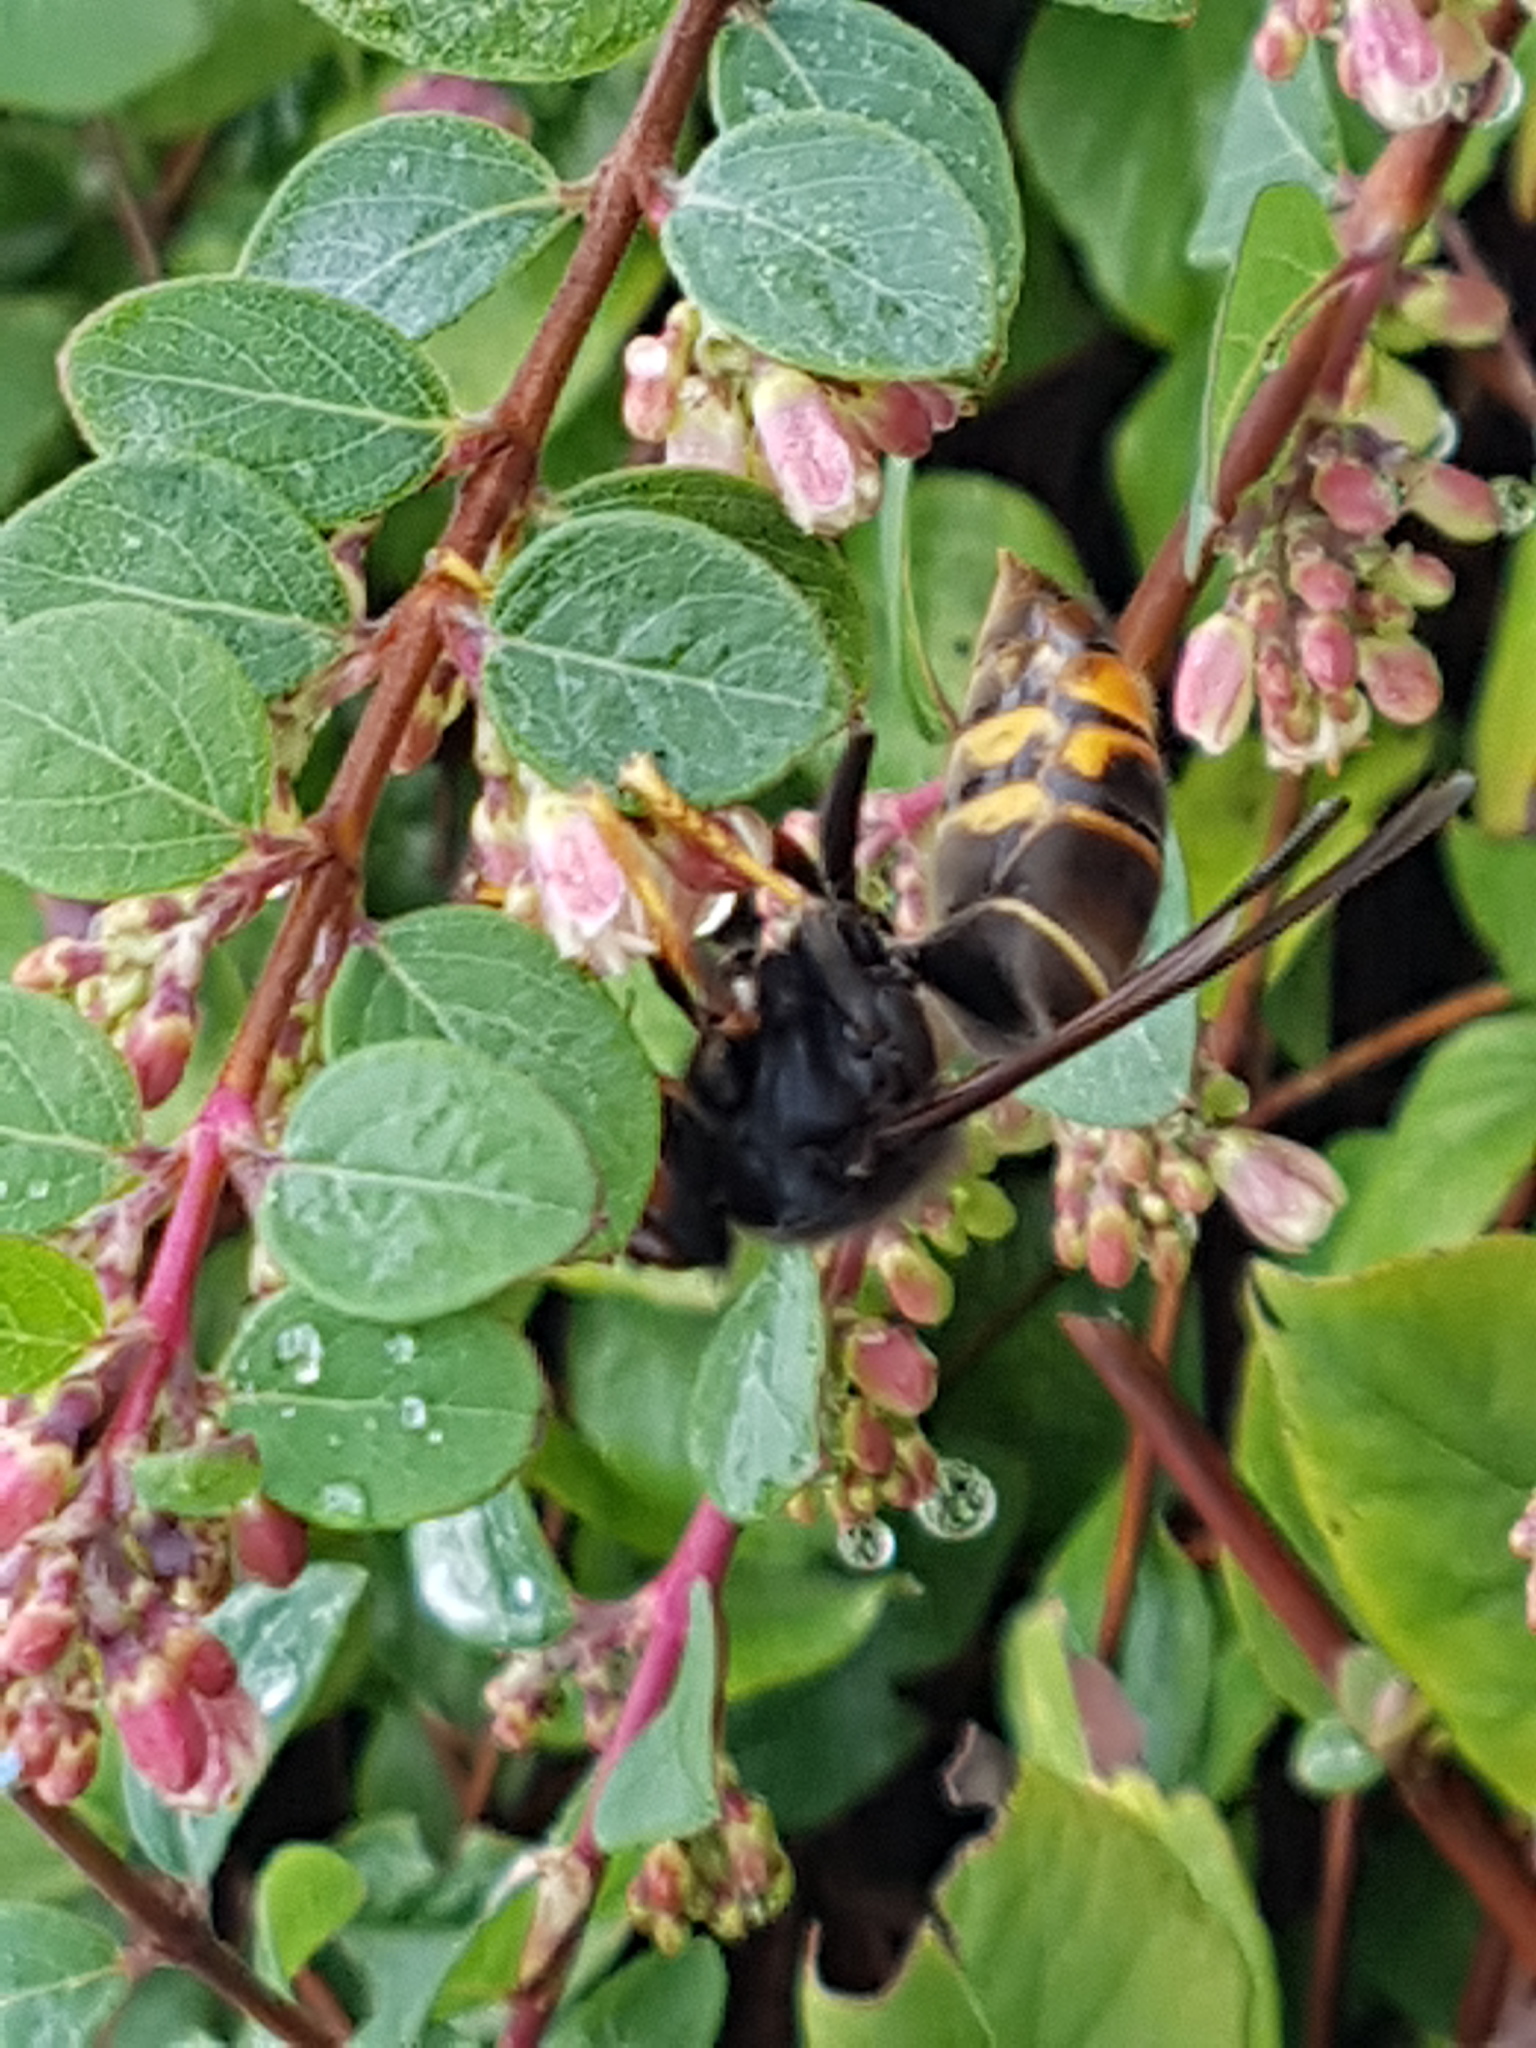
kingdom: Animalia
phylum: Arthropoda
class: Insecta
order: Hymenoptera
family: Vespidae
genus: Vespa
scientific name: Vespa velutina
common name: Asian hornet
